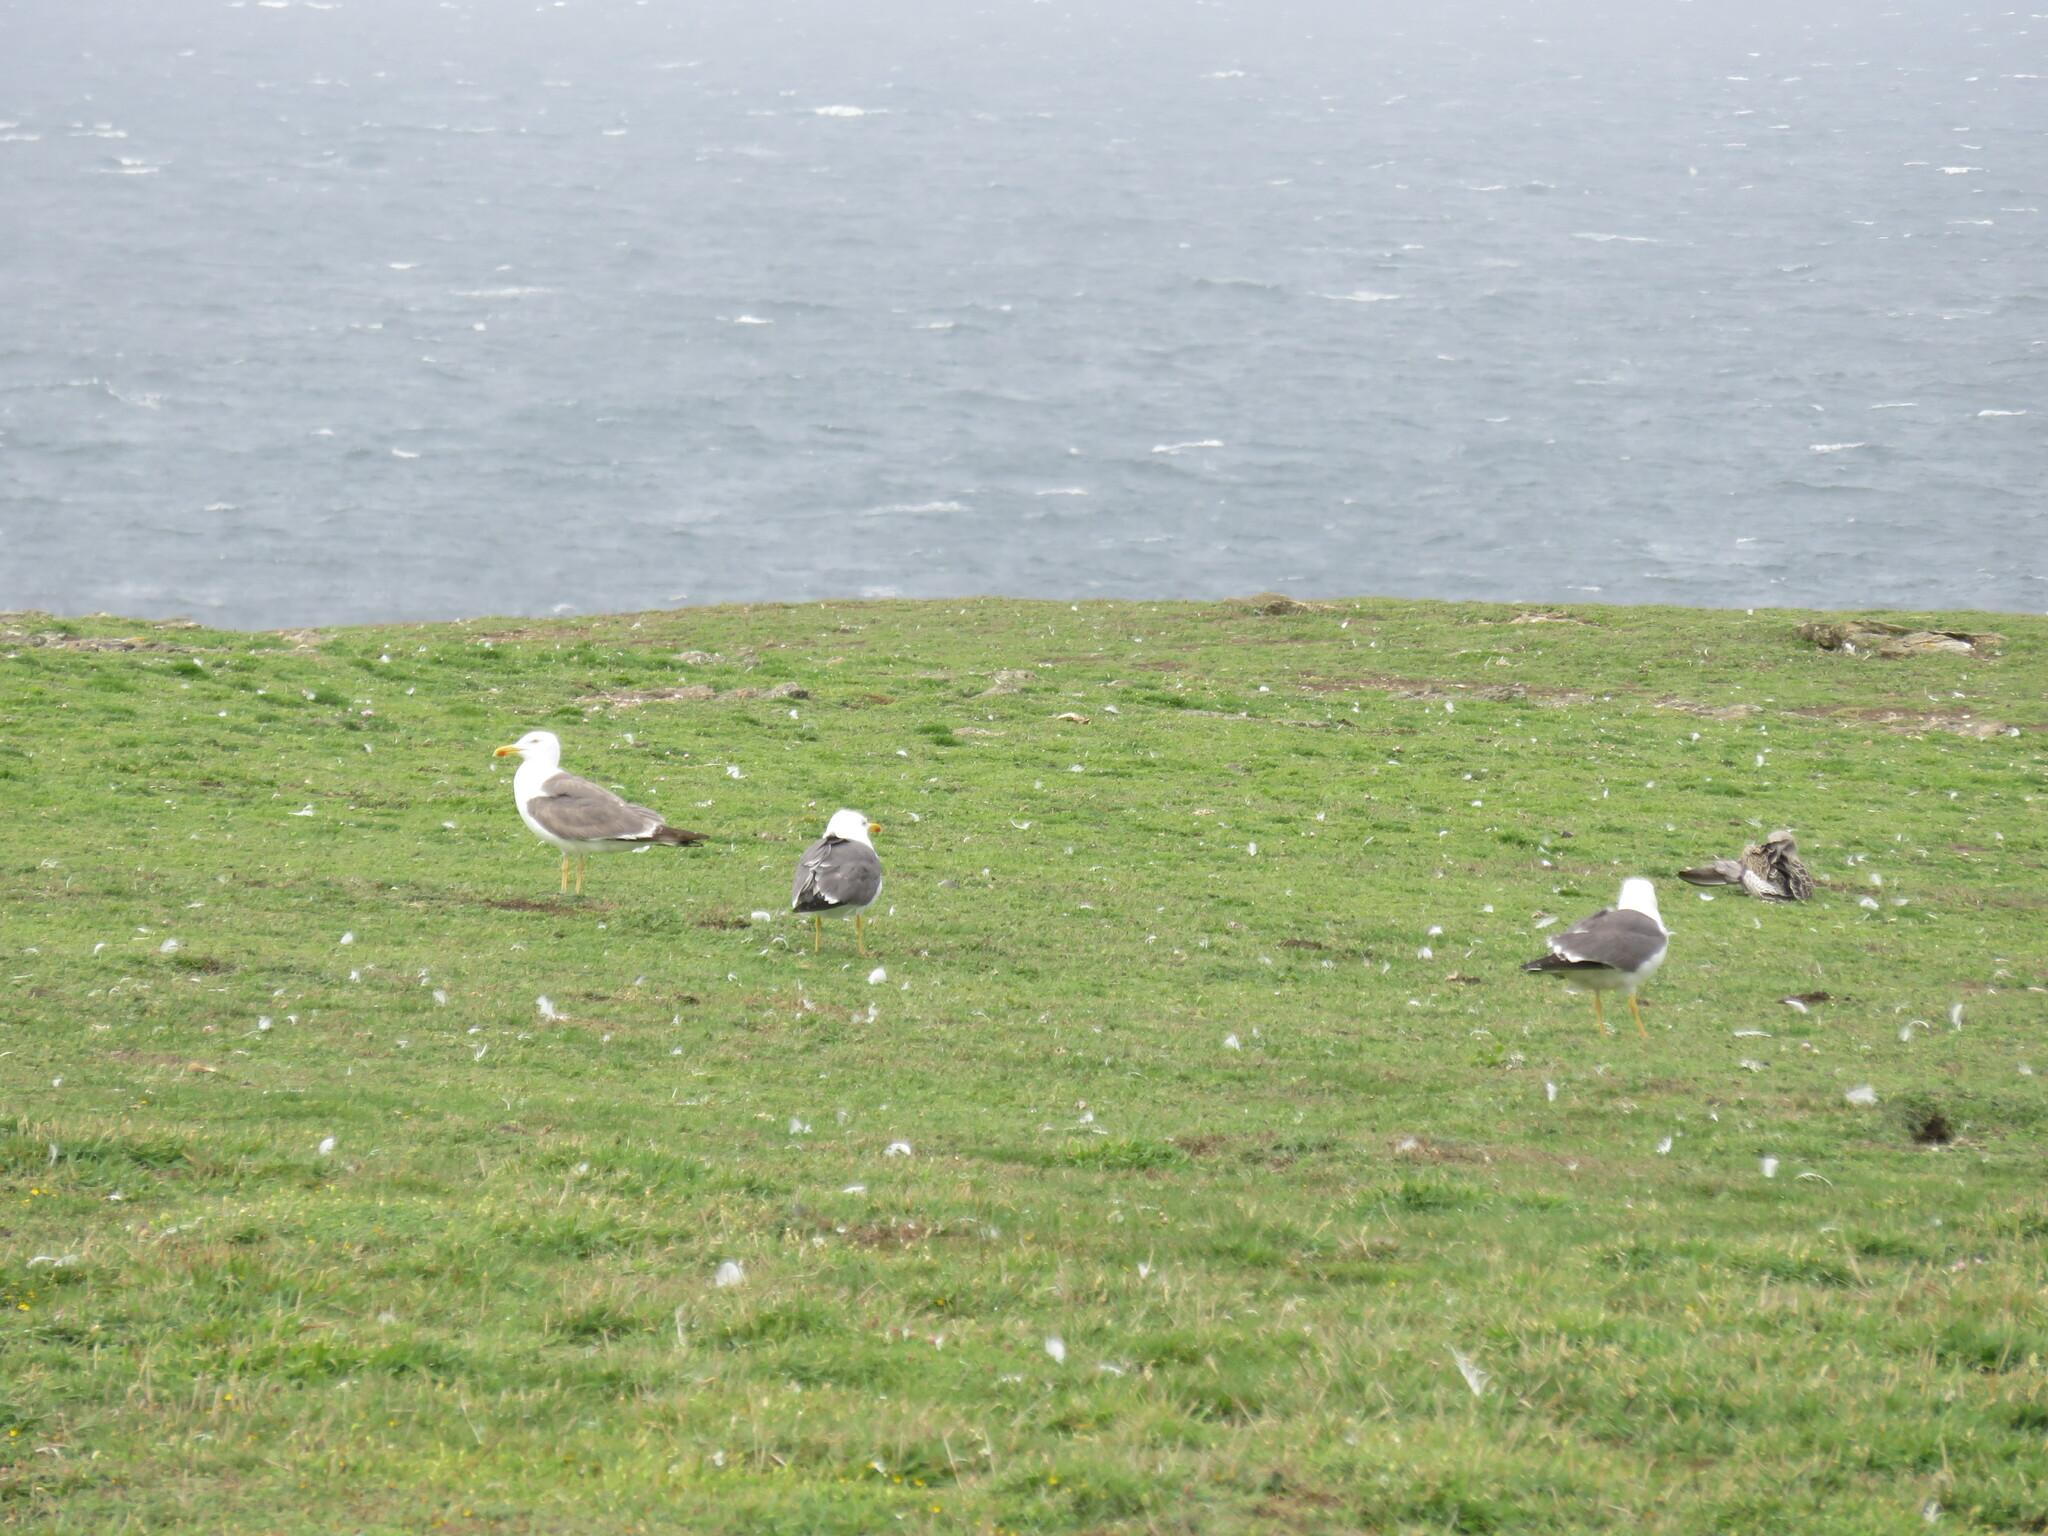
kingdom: Animalia
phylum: Chordata
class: Aves
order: Charadriiformes
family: Laridae
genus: Larus
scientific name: Larus fuscus
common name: Lesser black-backed gull
